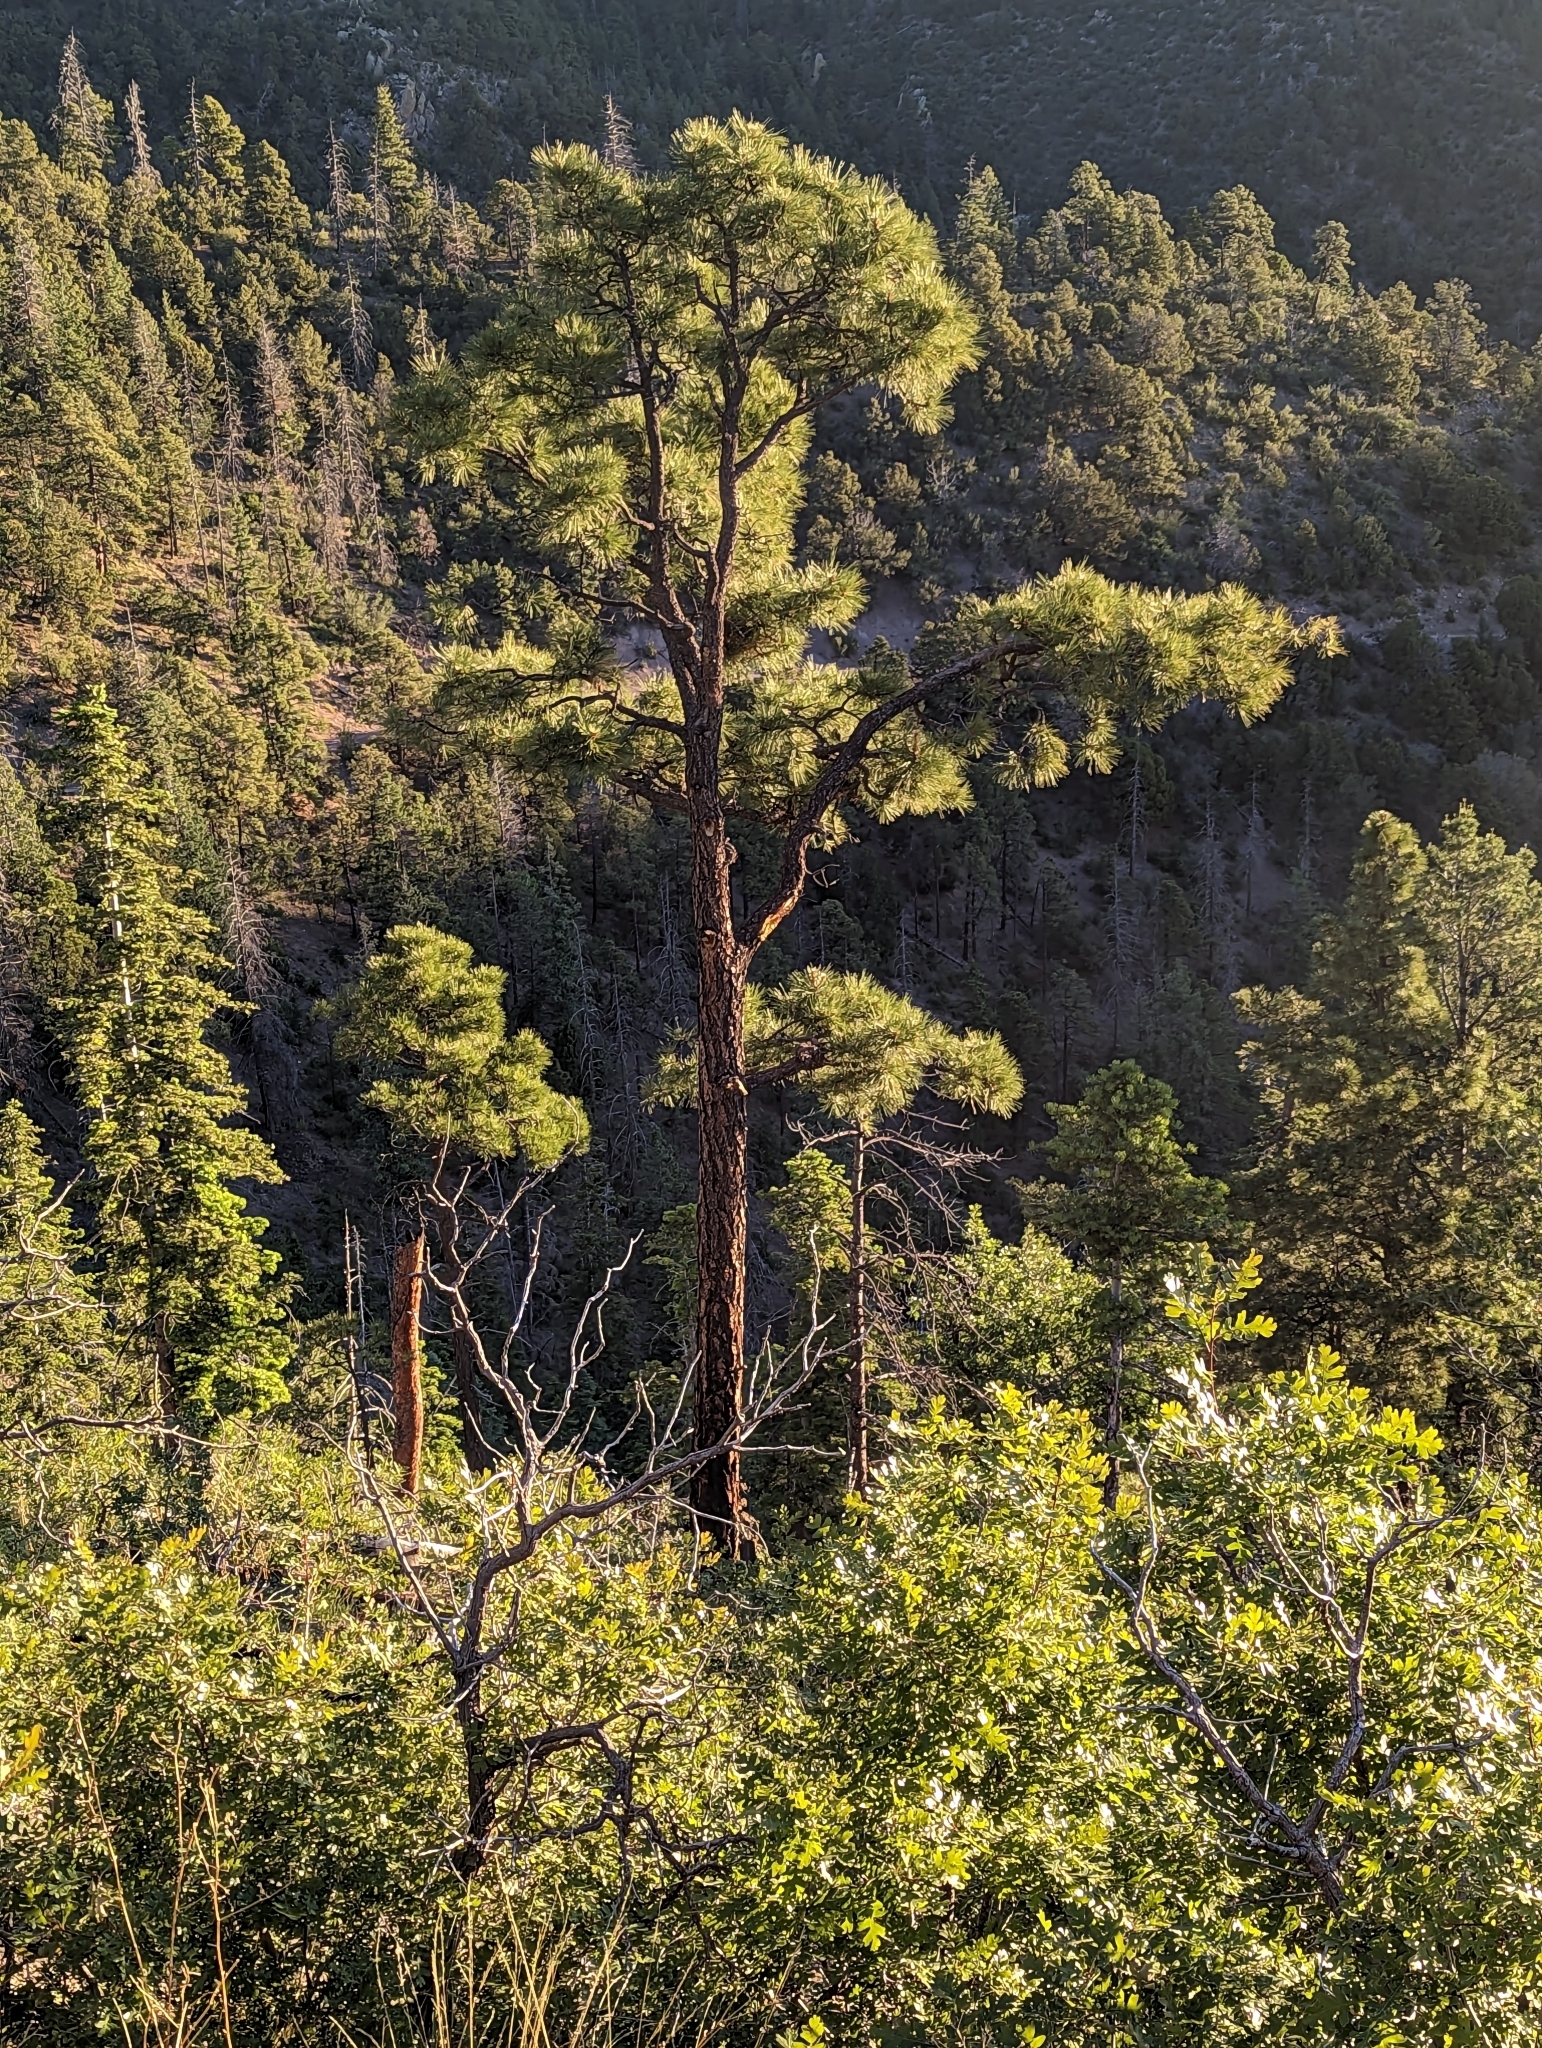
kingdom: Plantae
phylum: Tracheophyta
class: Pinopsida
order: Pinales
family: Pinaceae
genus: Pinus
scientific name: Pinus ponderosa
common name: Western yellow-pine
